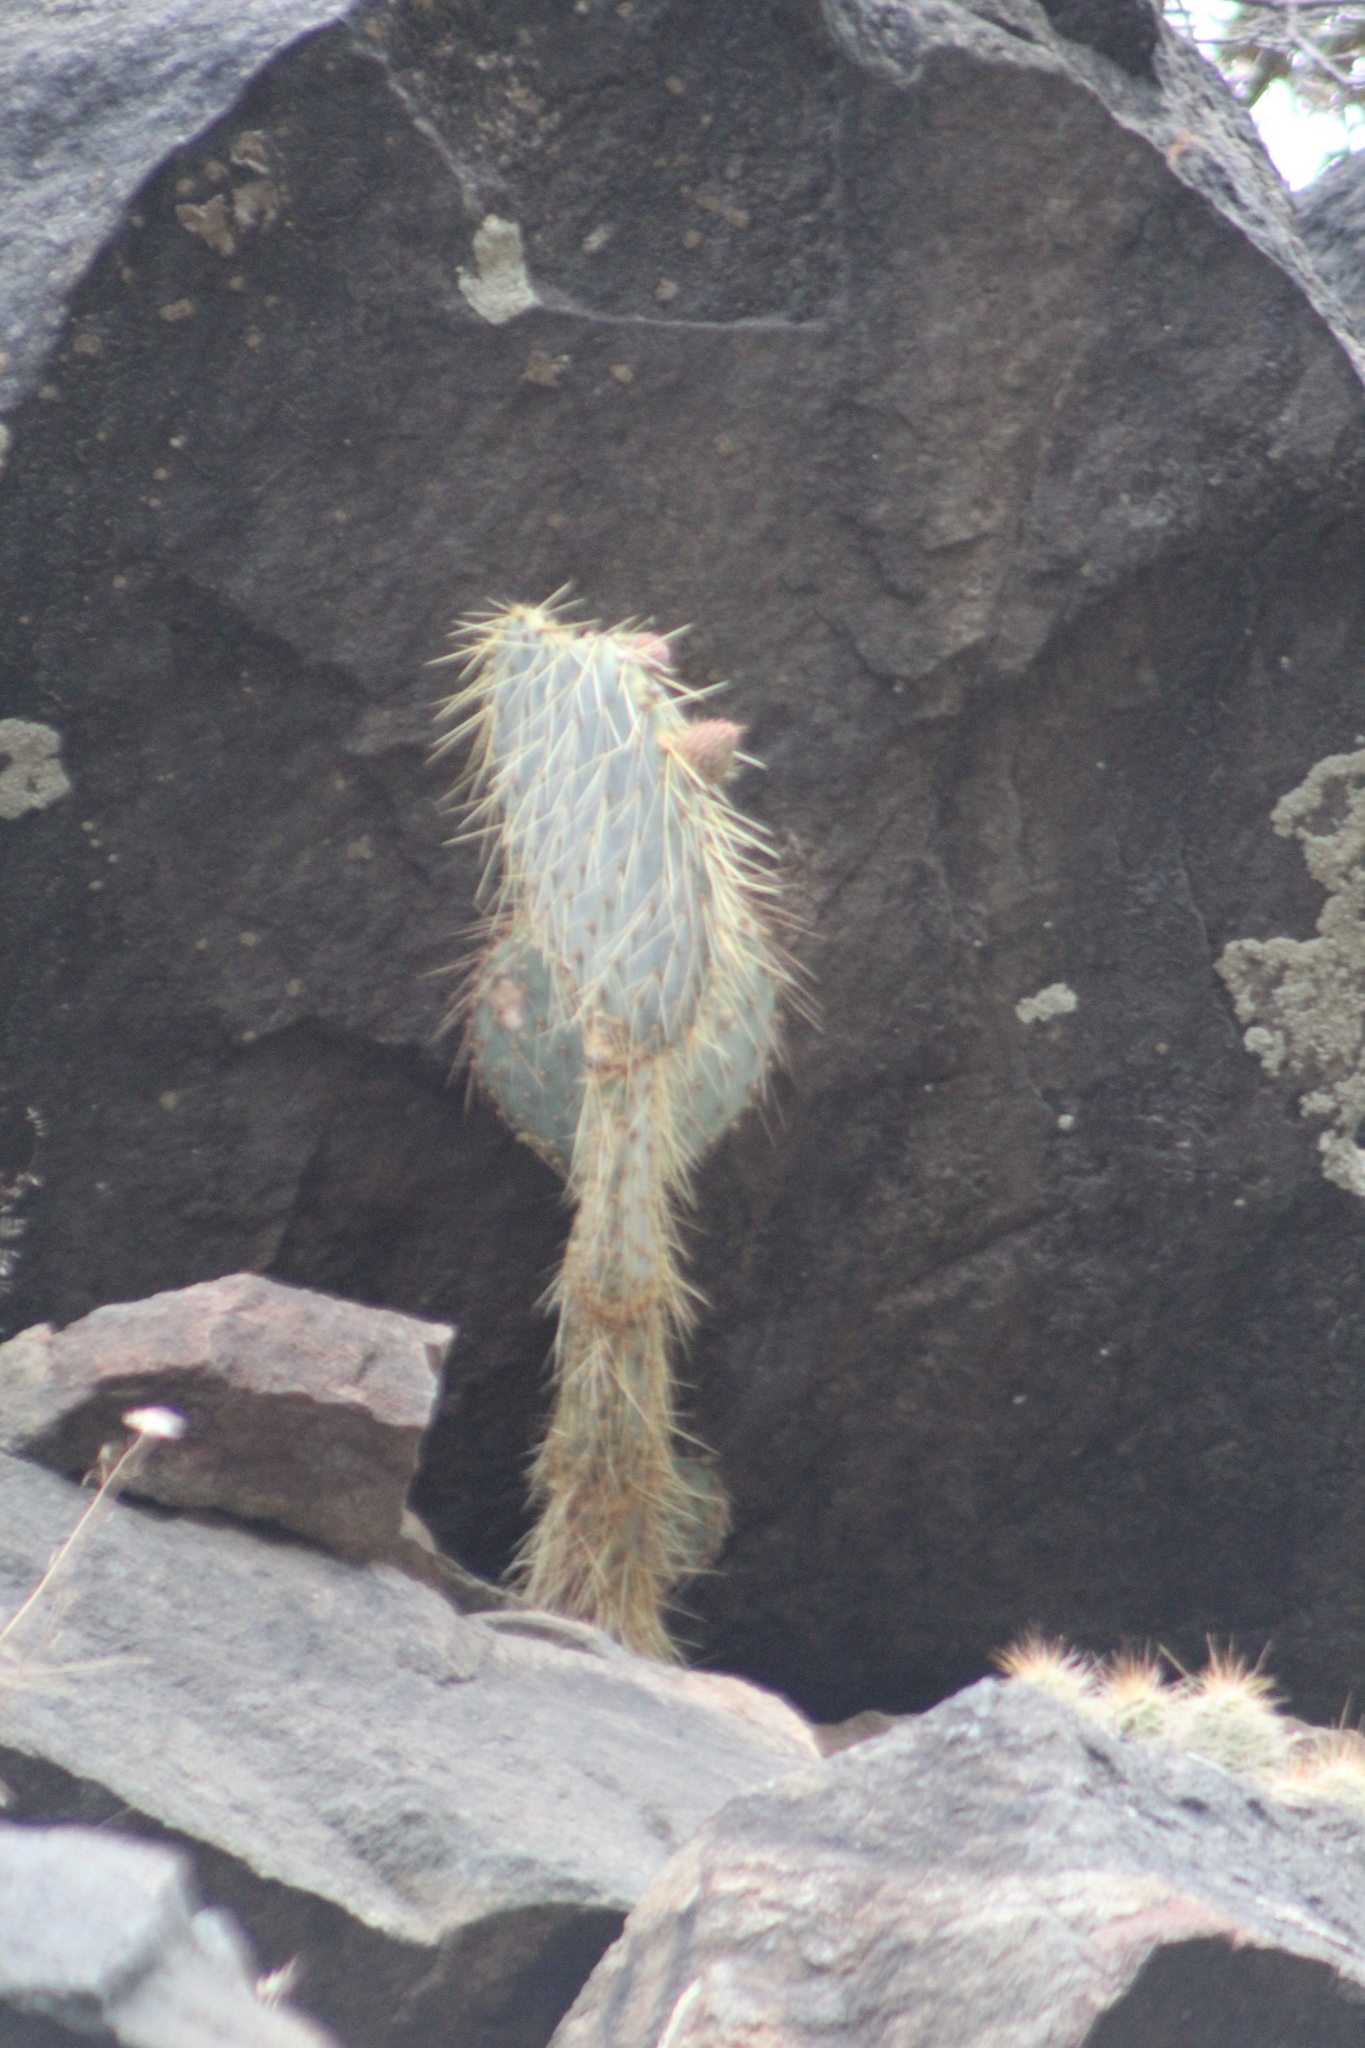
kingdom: Plantae
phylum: Tracheophyta
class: Magnoliopsida
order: Caryophyllales
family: Cactaceae
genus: Opuntia
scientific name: Opuntia chlorotica
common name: Dollar-joint prickly-pear
